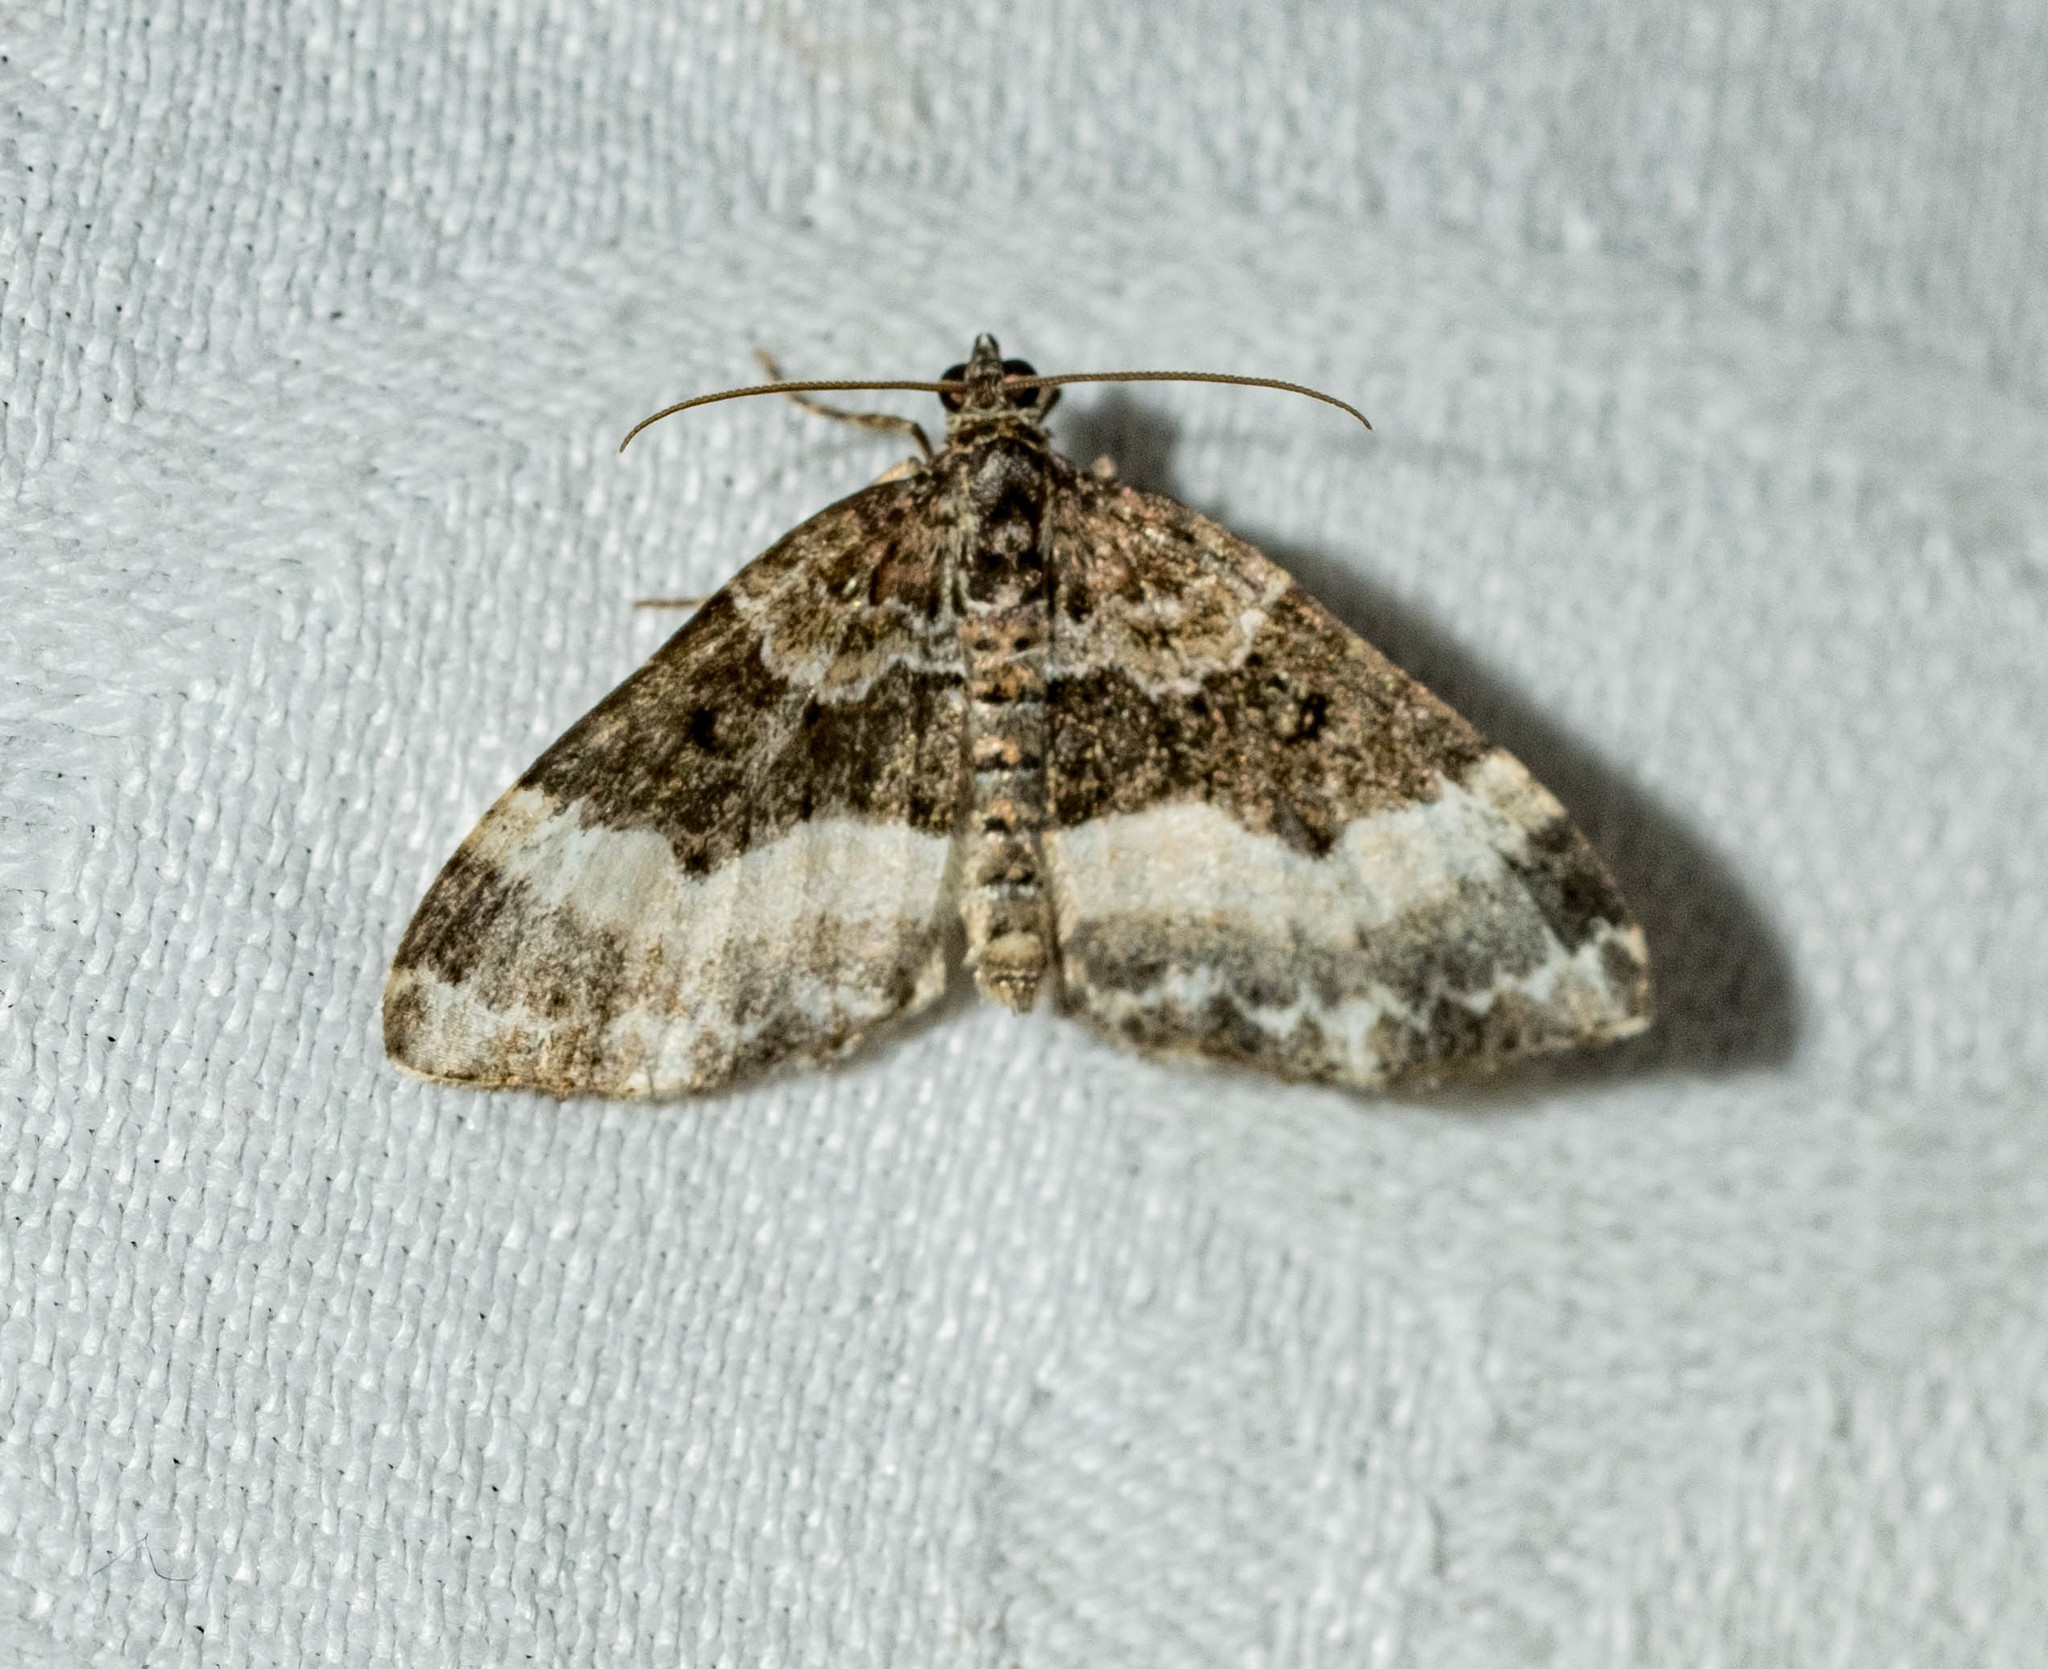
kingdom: Animalia
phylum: Arthropoda
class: Insecta
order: Lepidoptera
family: Geometridae
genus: Euphyia
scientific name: Euphyia unangulata
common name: Sharp-angled carpet
